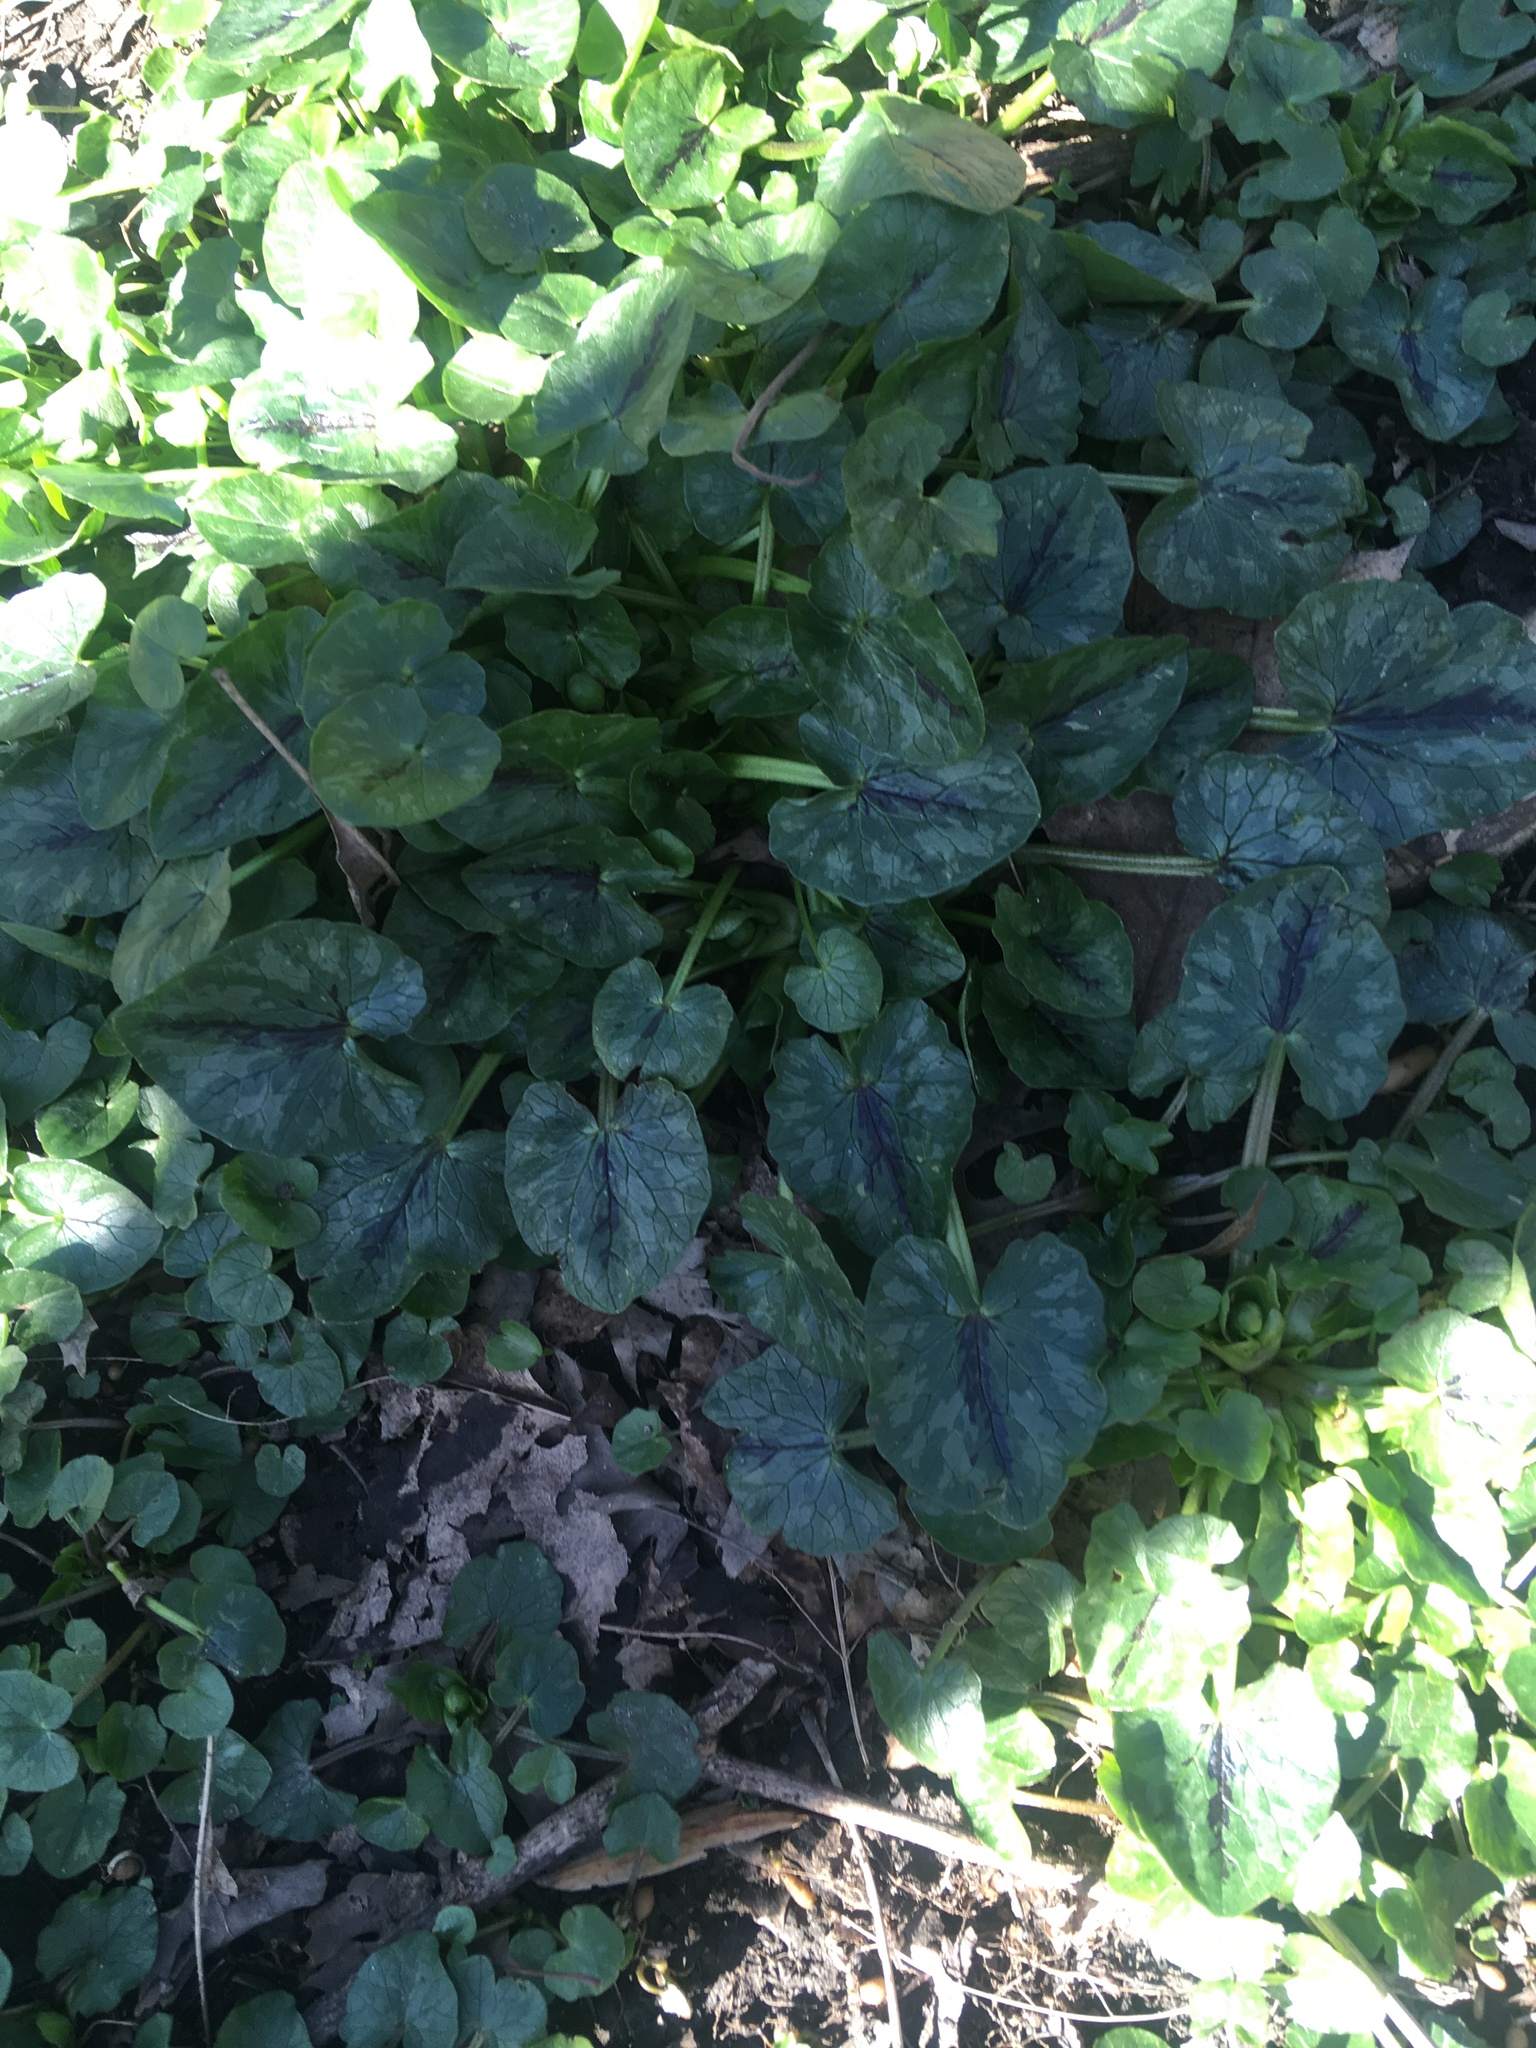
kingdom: Plantae
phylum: Tracheophyta
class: Magnoliopsida
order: Ranunculales
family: Ranunculaceae
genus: Ficaria
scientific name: Ficaria verna
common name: Lesser celandine
